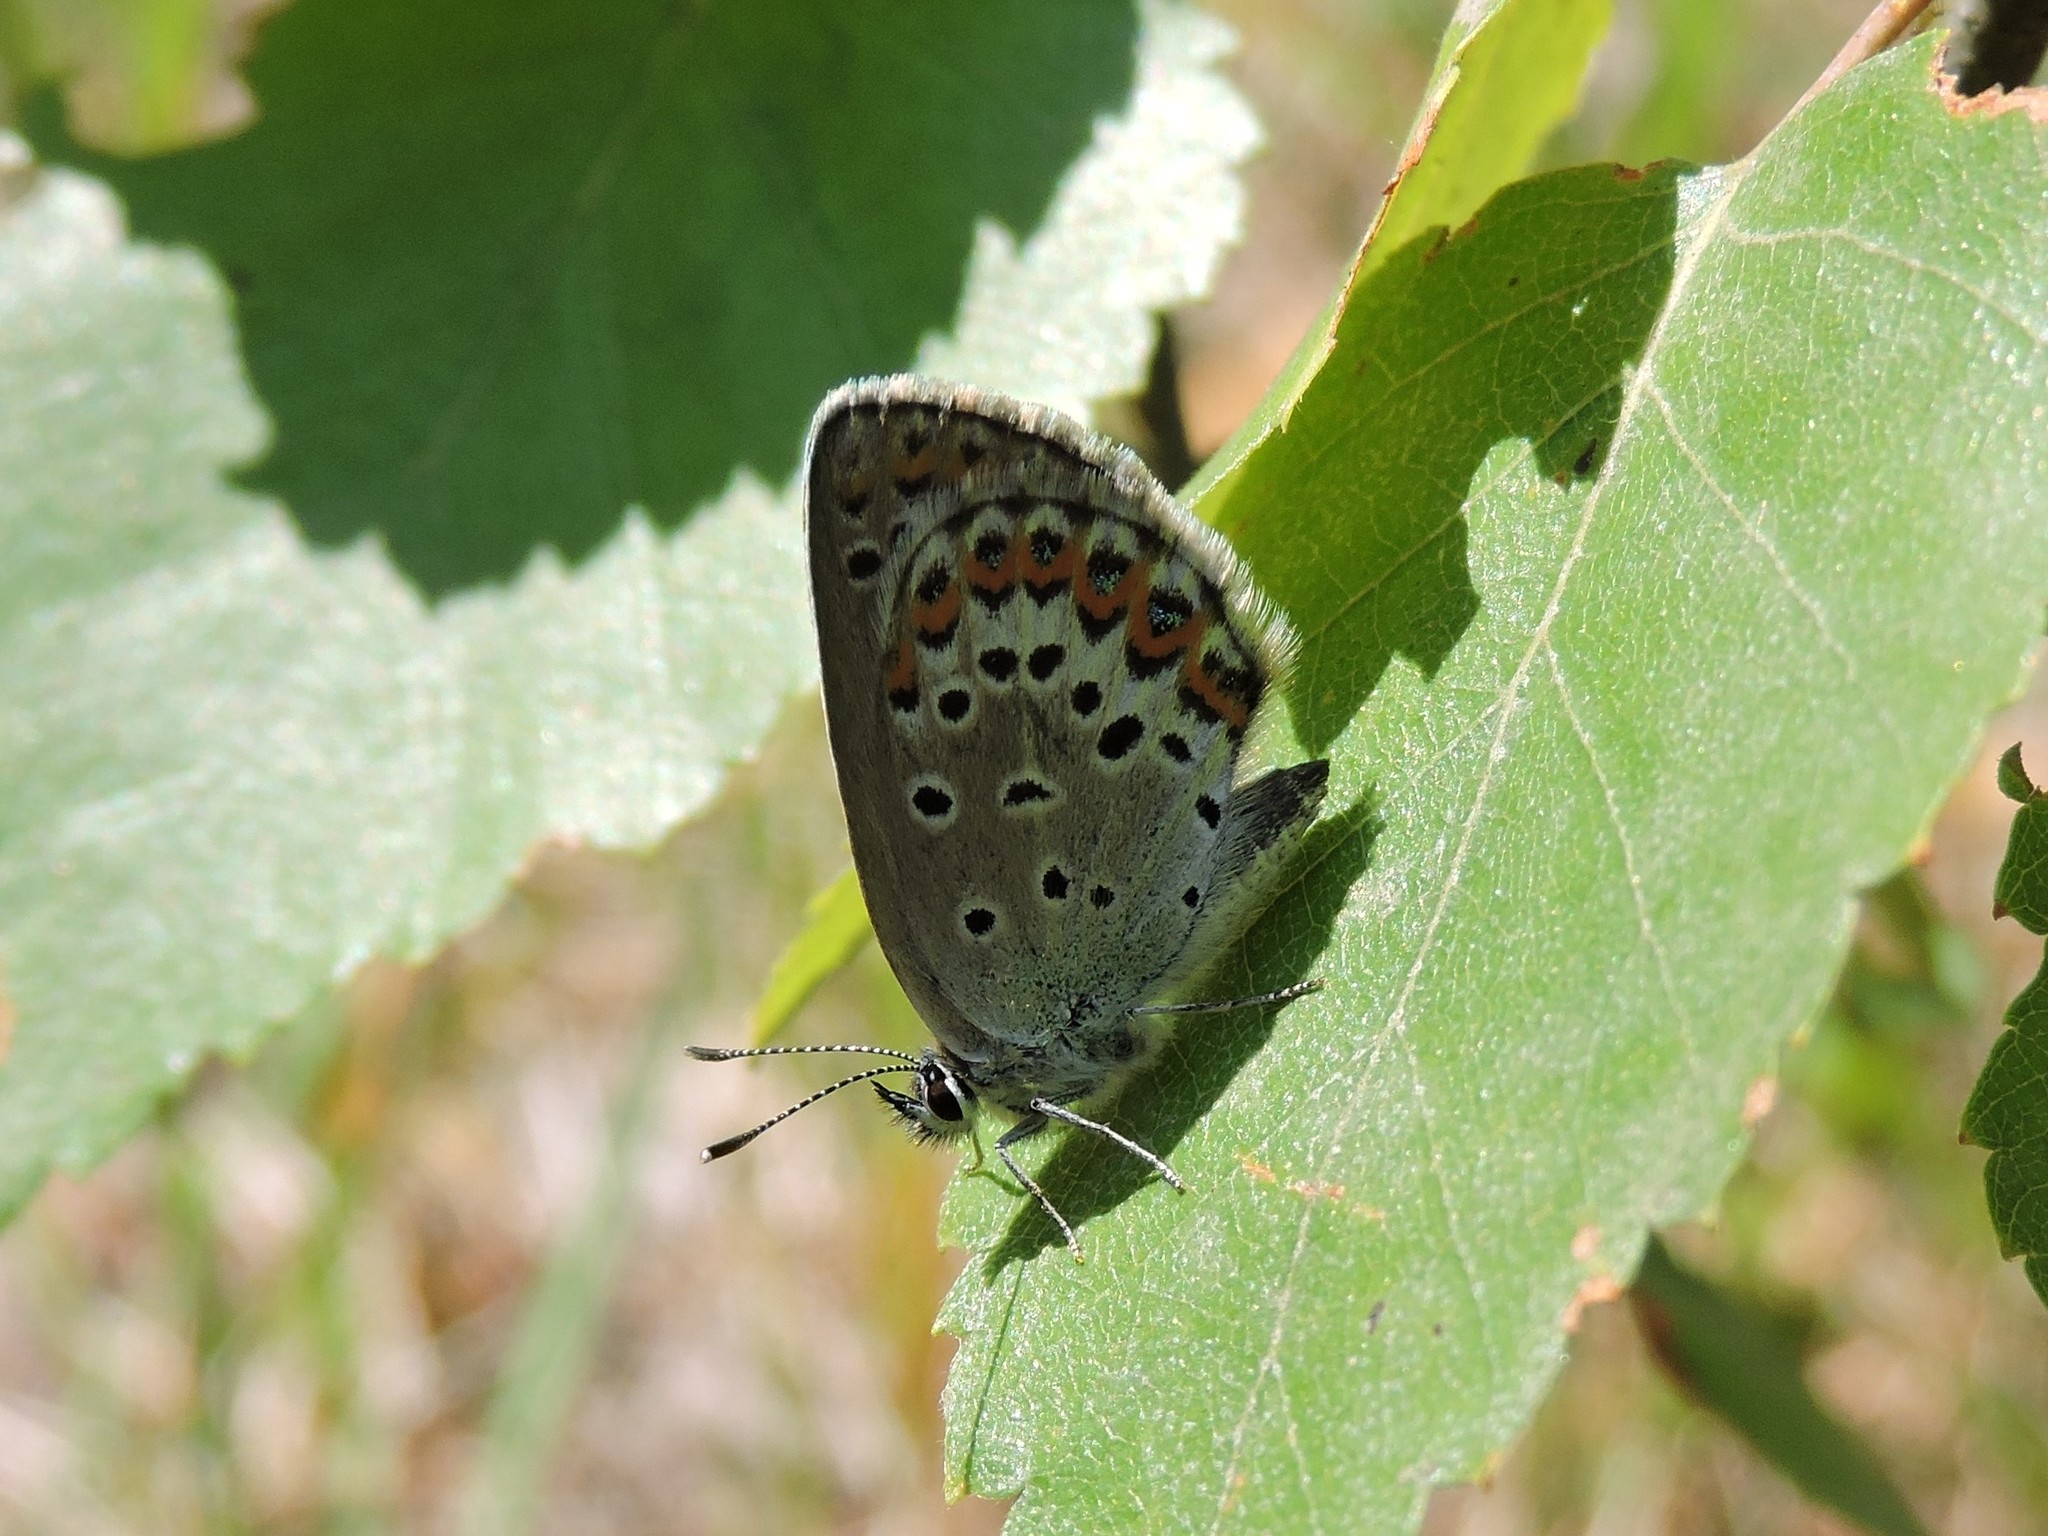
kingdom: Animalia
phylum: Arthropoda
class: Insecta
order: Lepidoptera
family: Lycaenidae
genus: Lycaeides
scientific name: Lycaeides idas
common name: Northern blue
